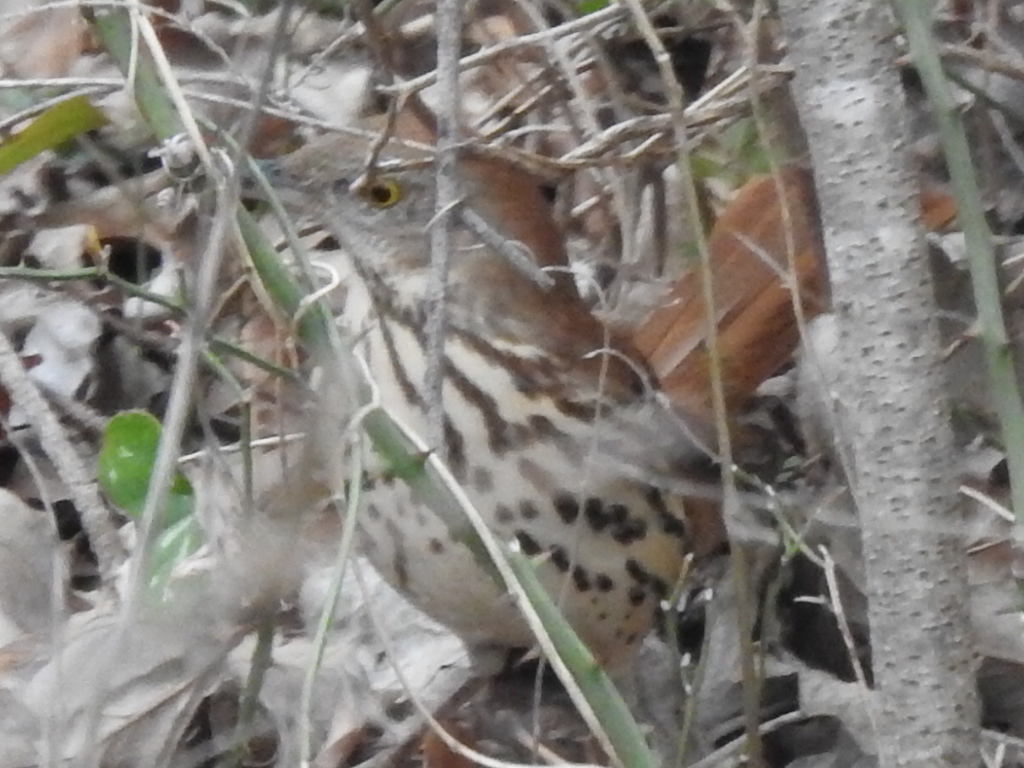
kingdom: Animalia
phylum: Chordata
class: Aves
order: Passeriformes
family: Mimidae
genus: Toxostoma
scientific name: Toxostoma rufum
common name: Brown thrasher
